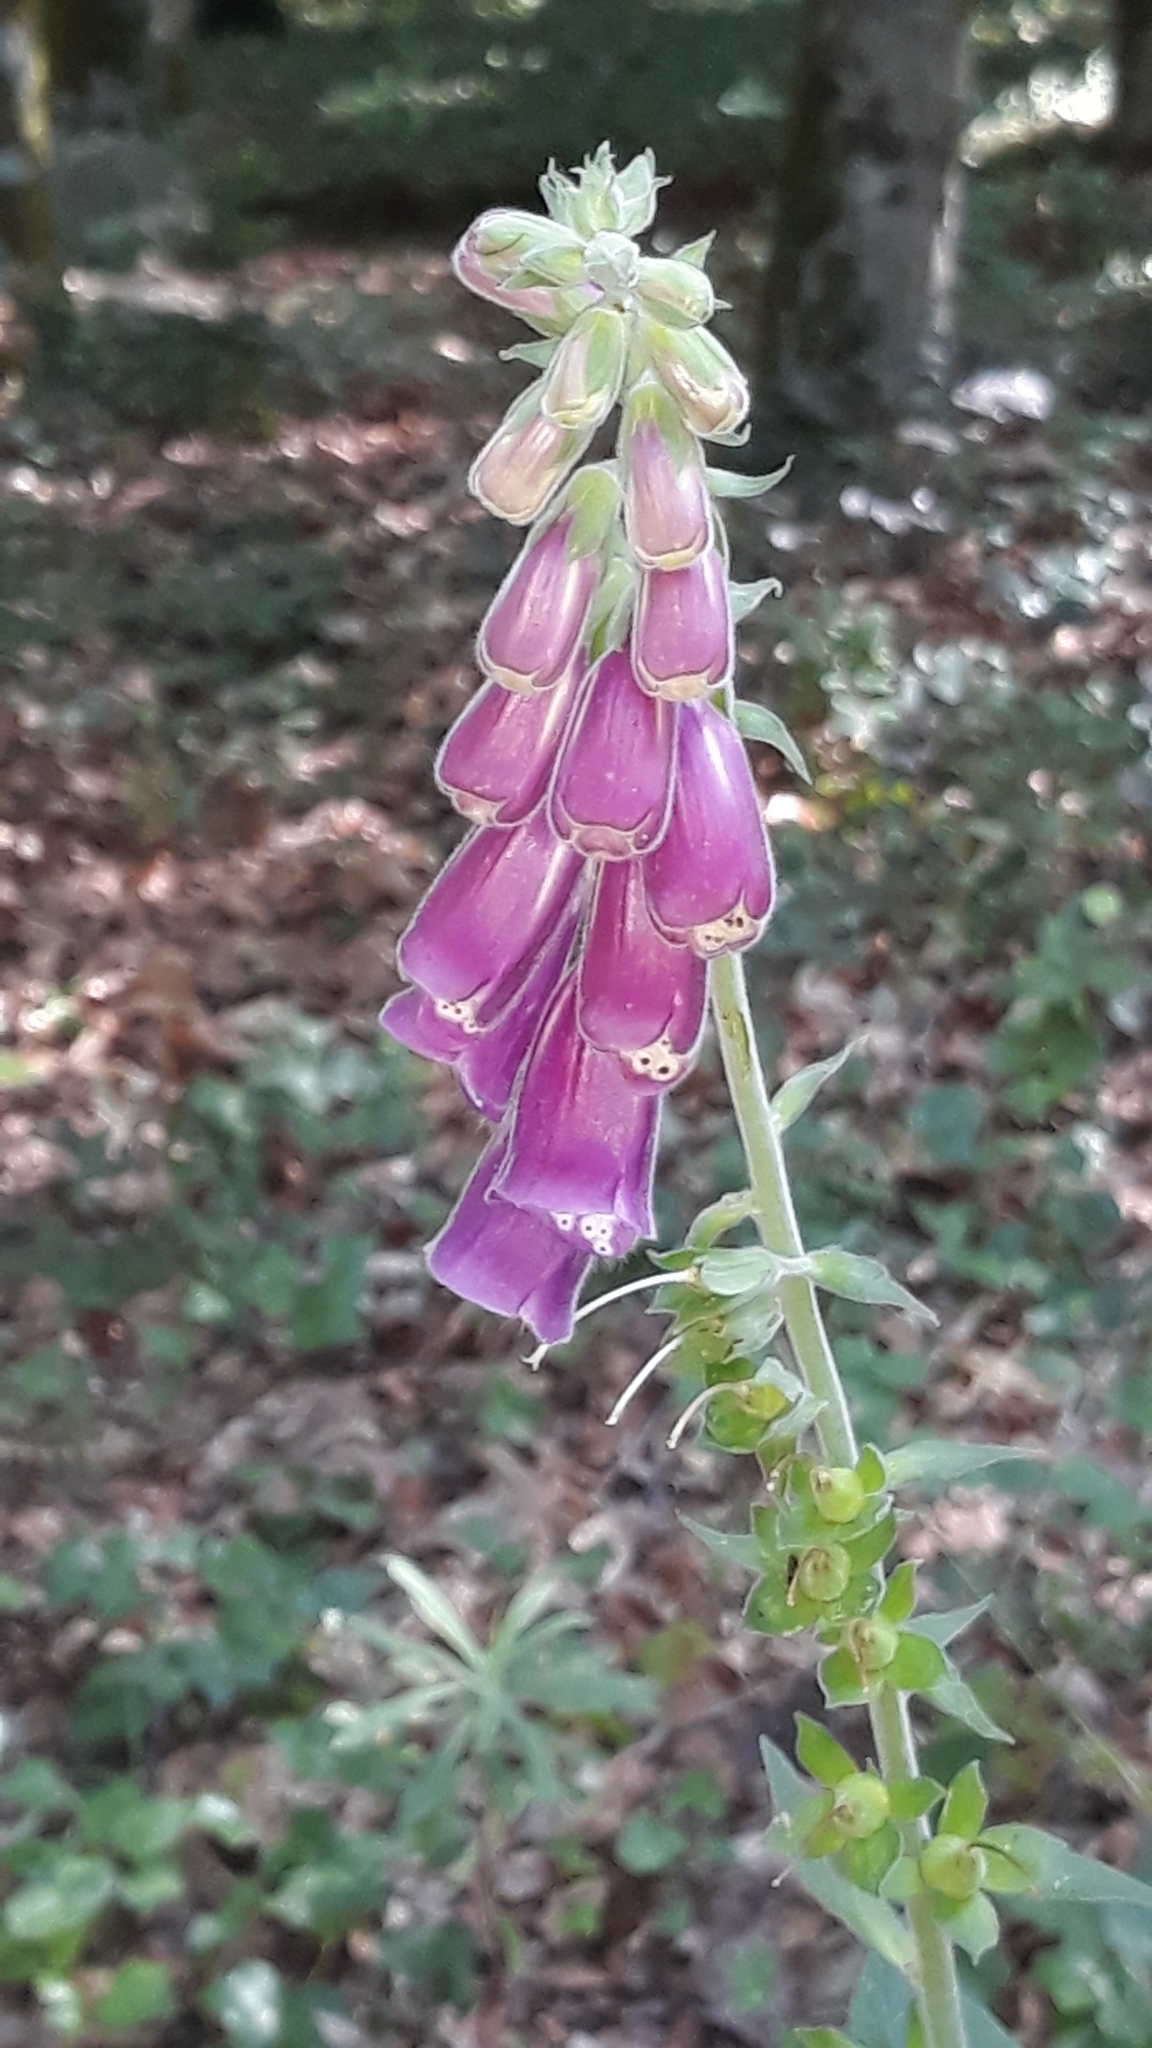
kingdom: Plantae
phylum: Tracheophyta
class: Magnoliopsida
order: Lamiales
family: Plantaginaceae
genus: Digitalis
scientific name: Digitalis purpurea
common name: Foxglove
